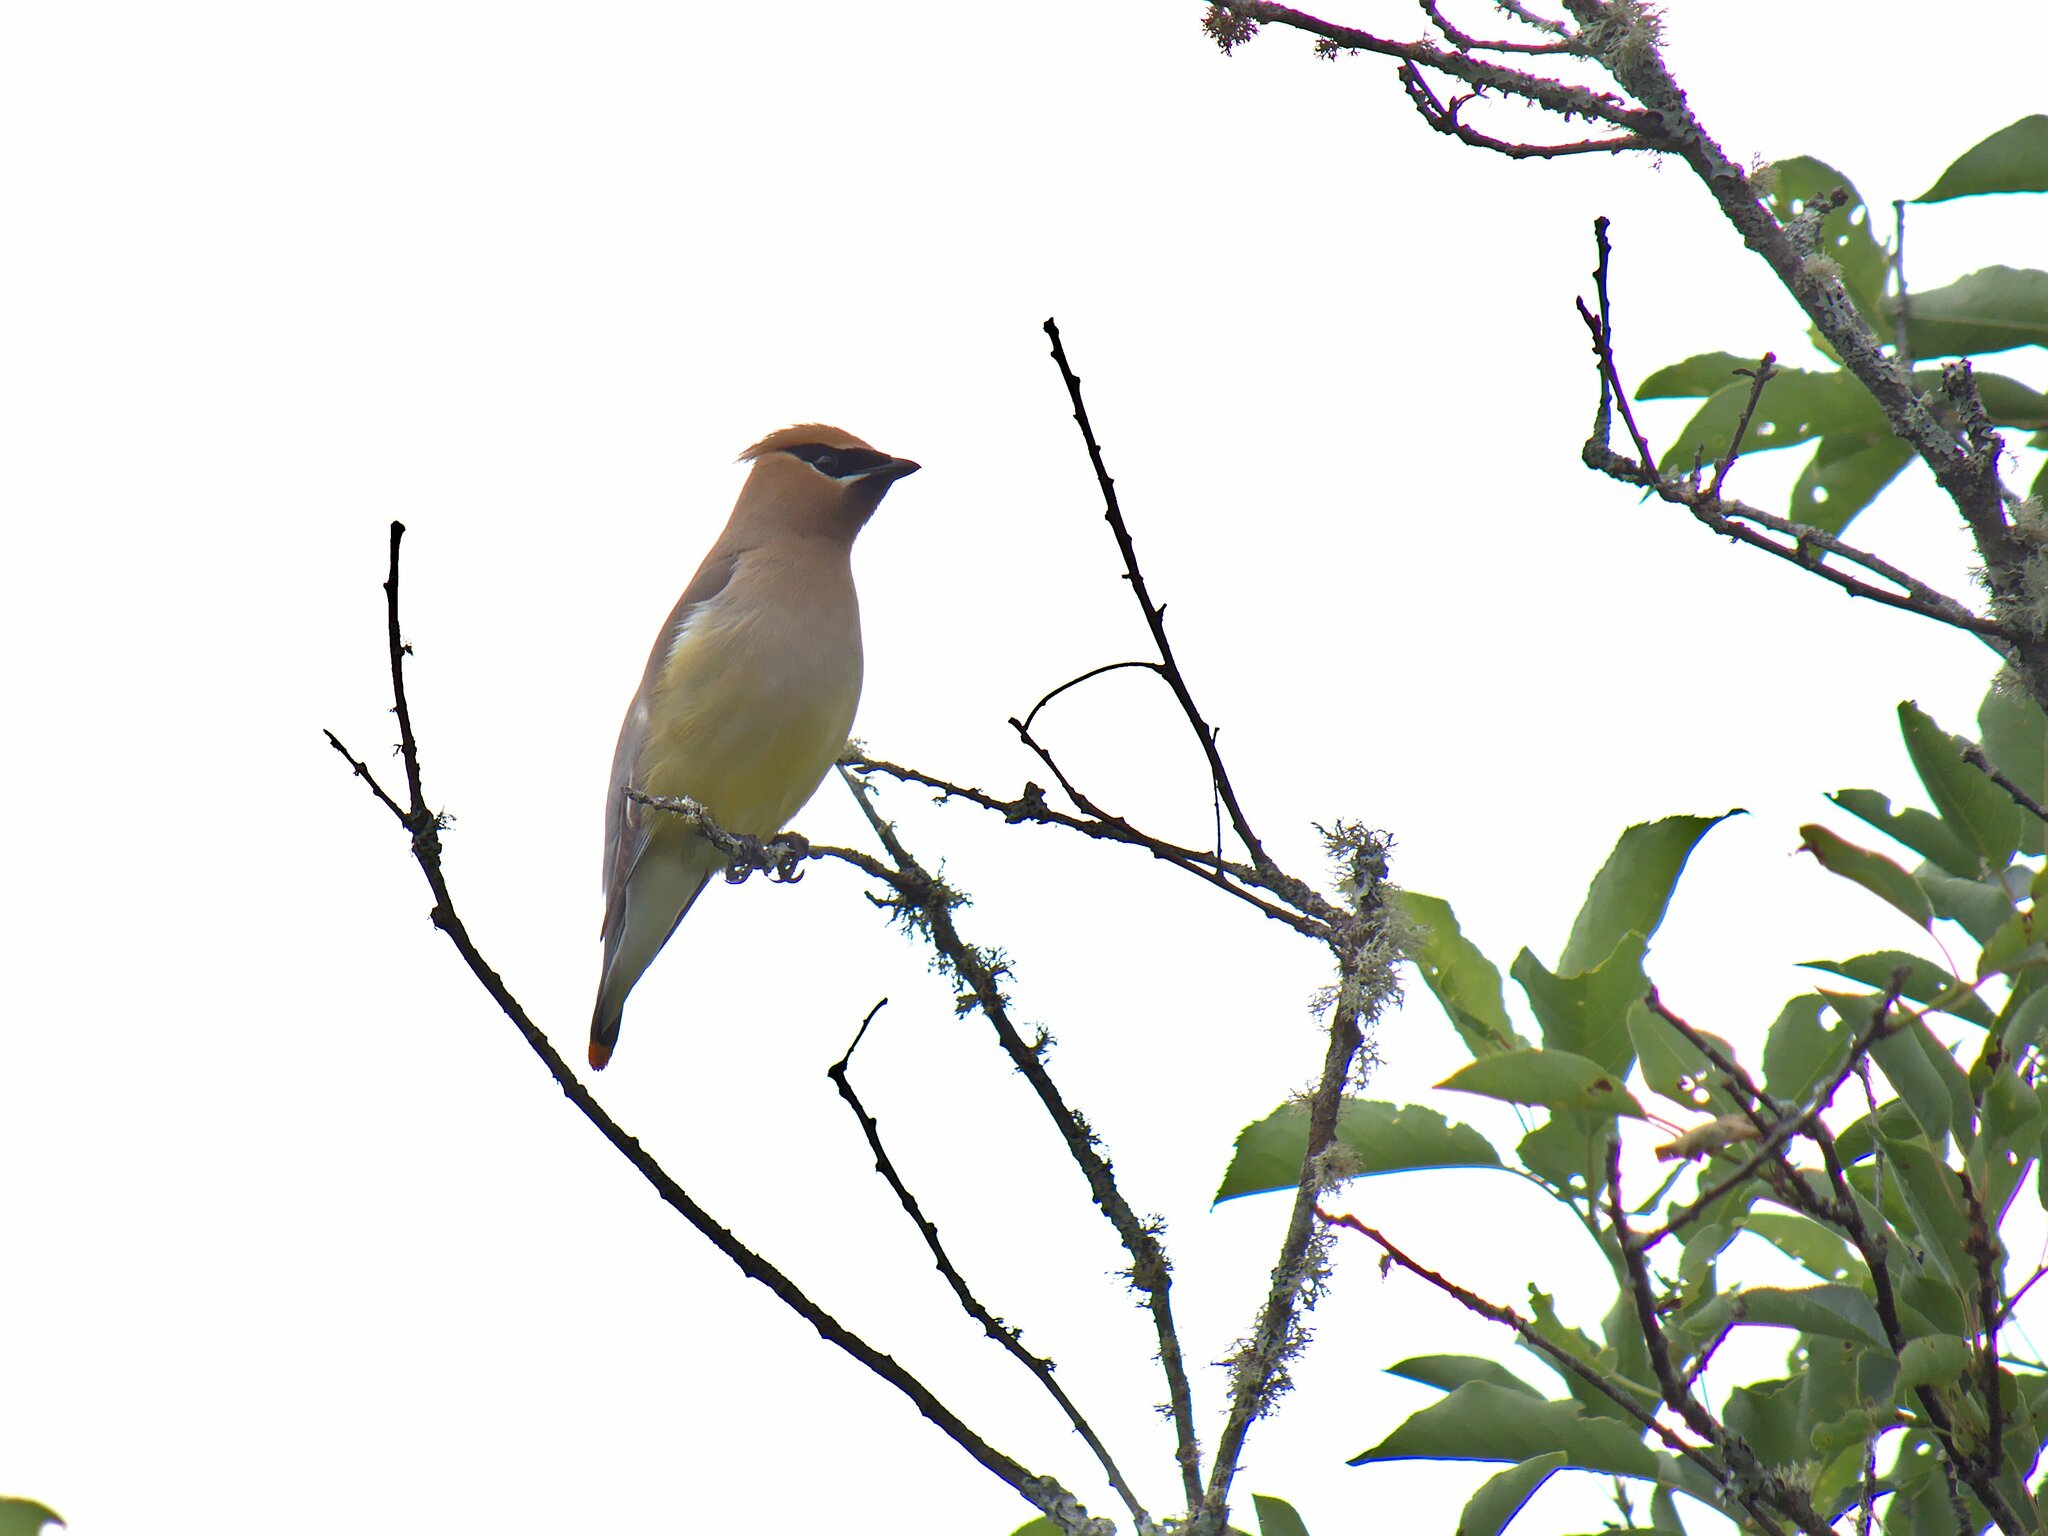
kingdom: Animalia
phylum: Chordata
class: Aves
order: Passeriformes
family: Bombycillidae
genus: Bombycilla
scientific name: Bombycilla cedrorum
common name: Cedar waxwing
